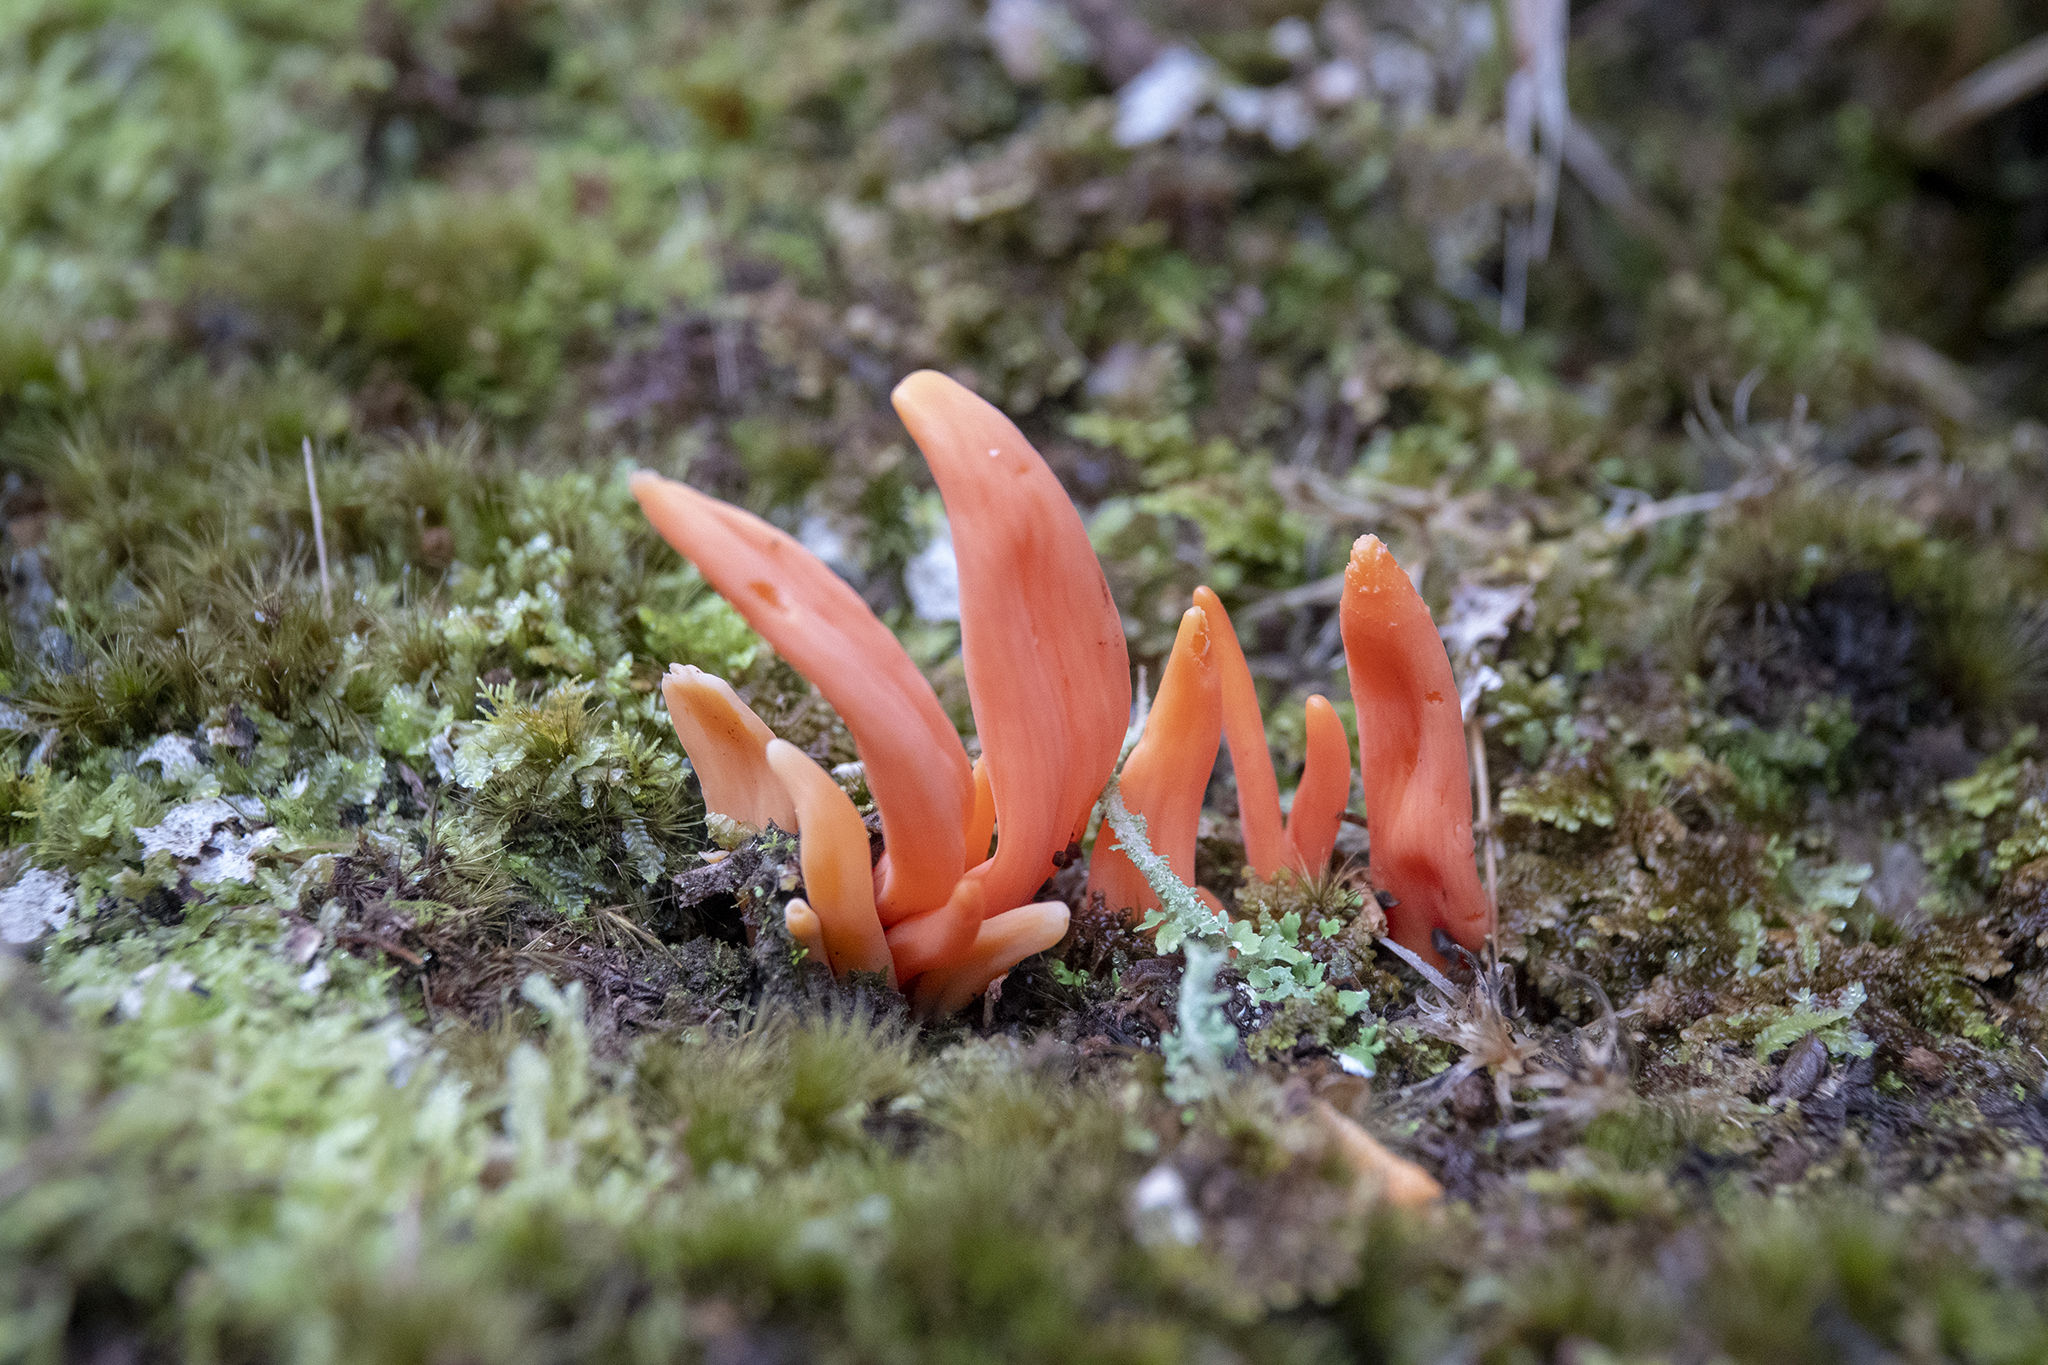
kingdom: Fungi
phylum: Basidiomycota
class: Agaricomycetes
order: Agaricales
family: Clavariaceae
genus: Clavulinopsis
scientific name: Clavulinopsis sulcata
